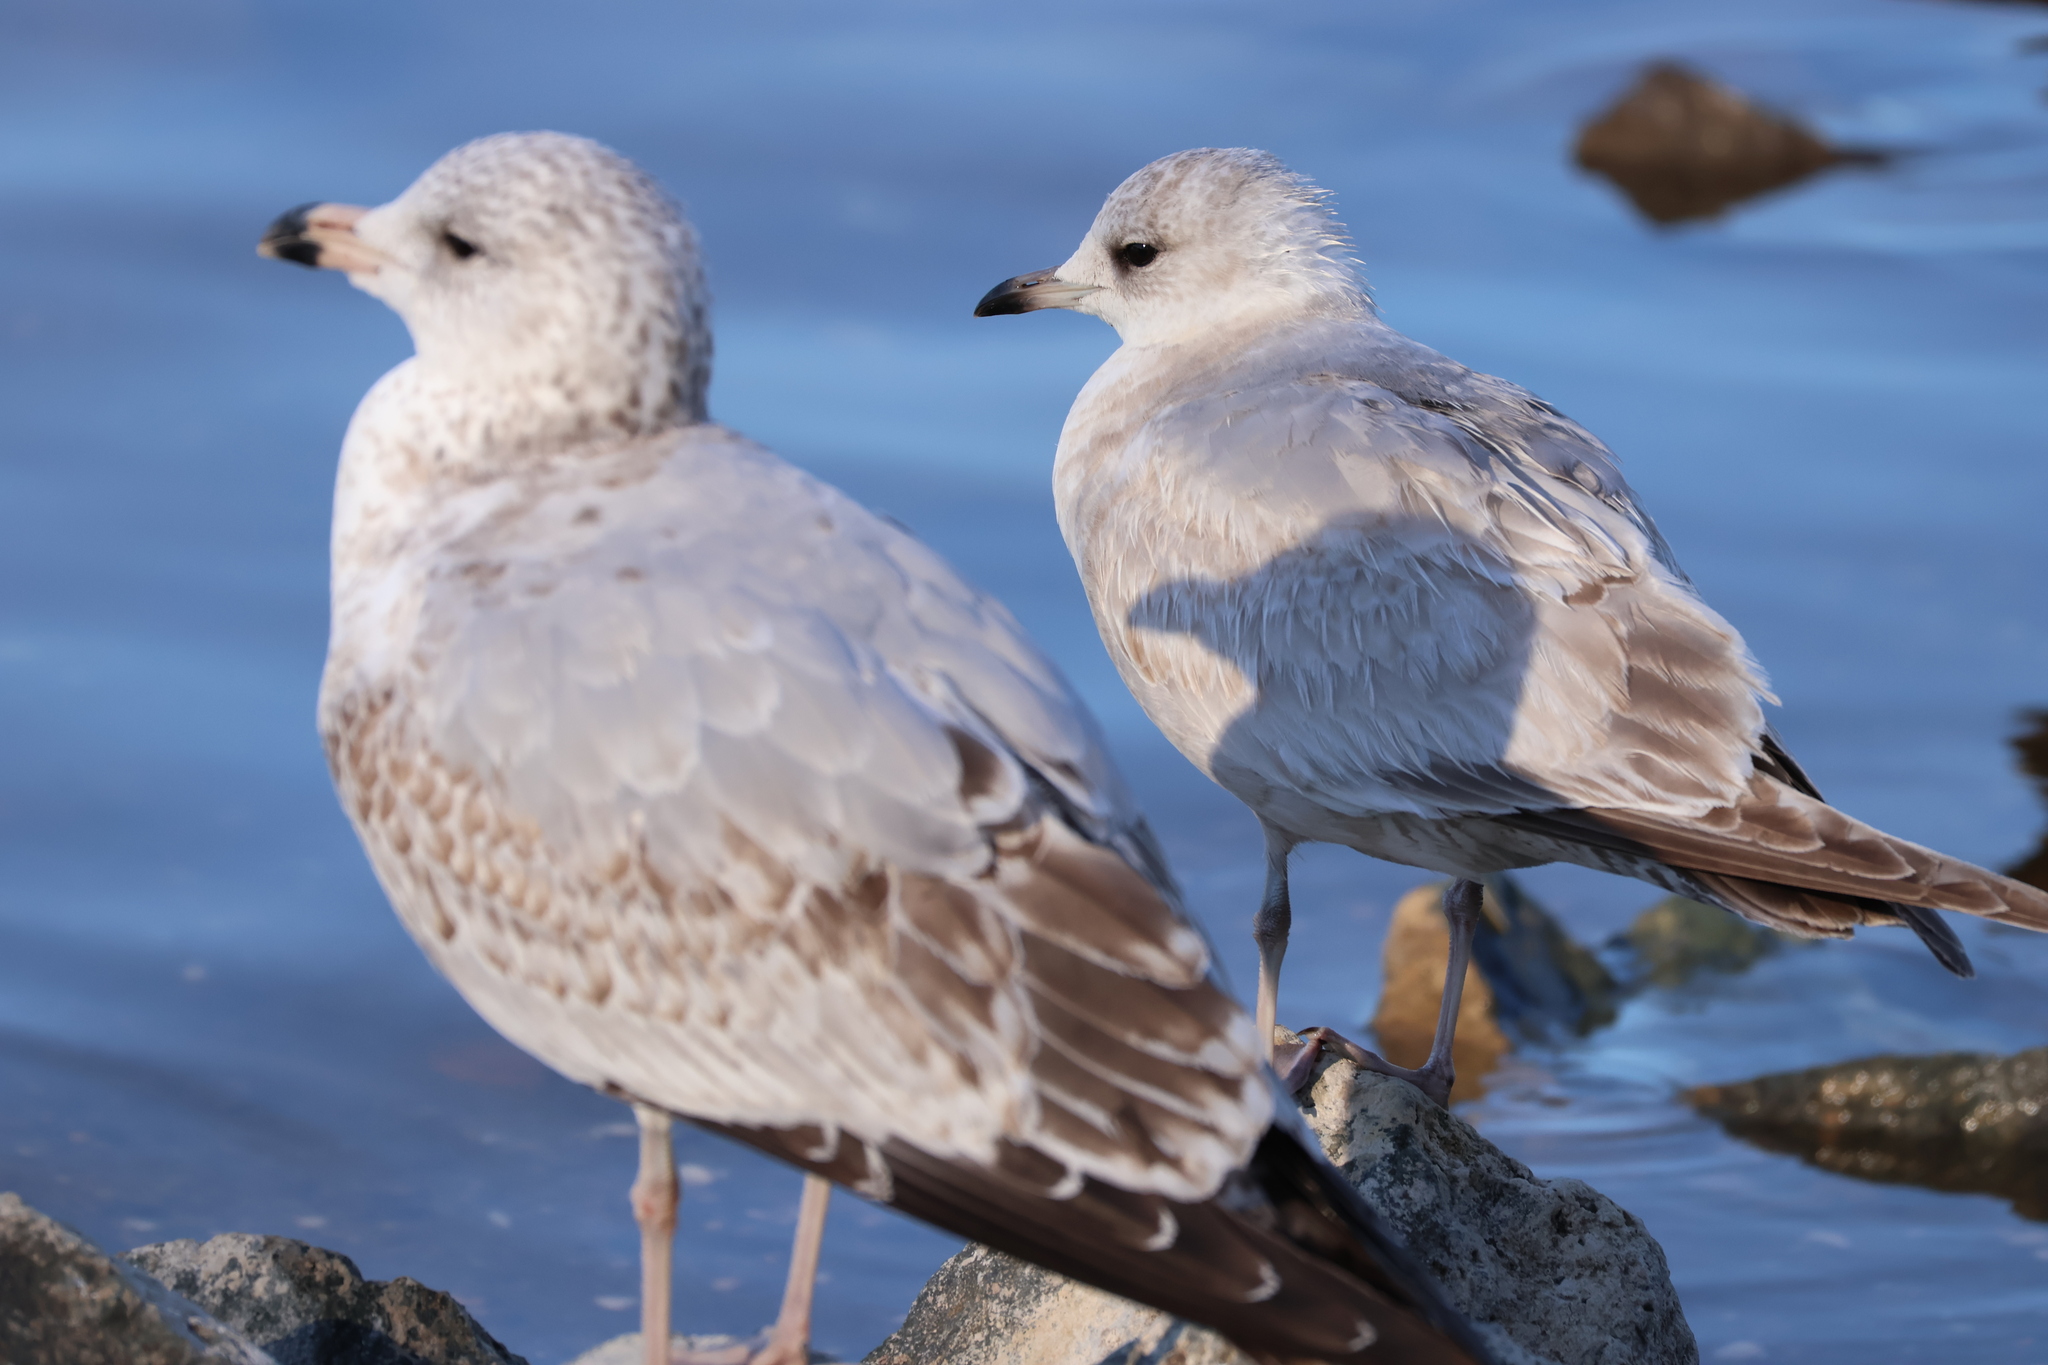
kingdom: Animalia
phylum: Chordata
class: Aves
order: Charadriiformes
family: Laridae
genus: Larus
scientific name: Larus brachyrhynchus
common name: Short-billed gull
